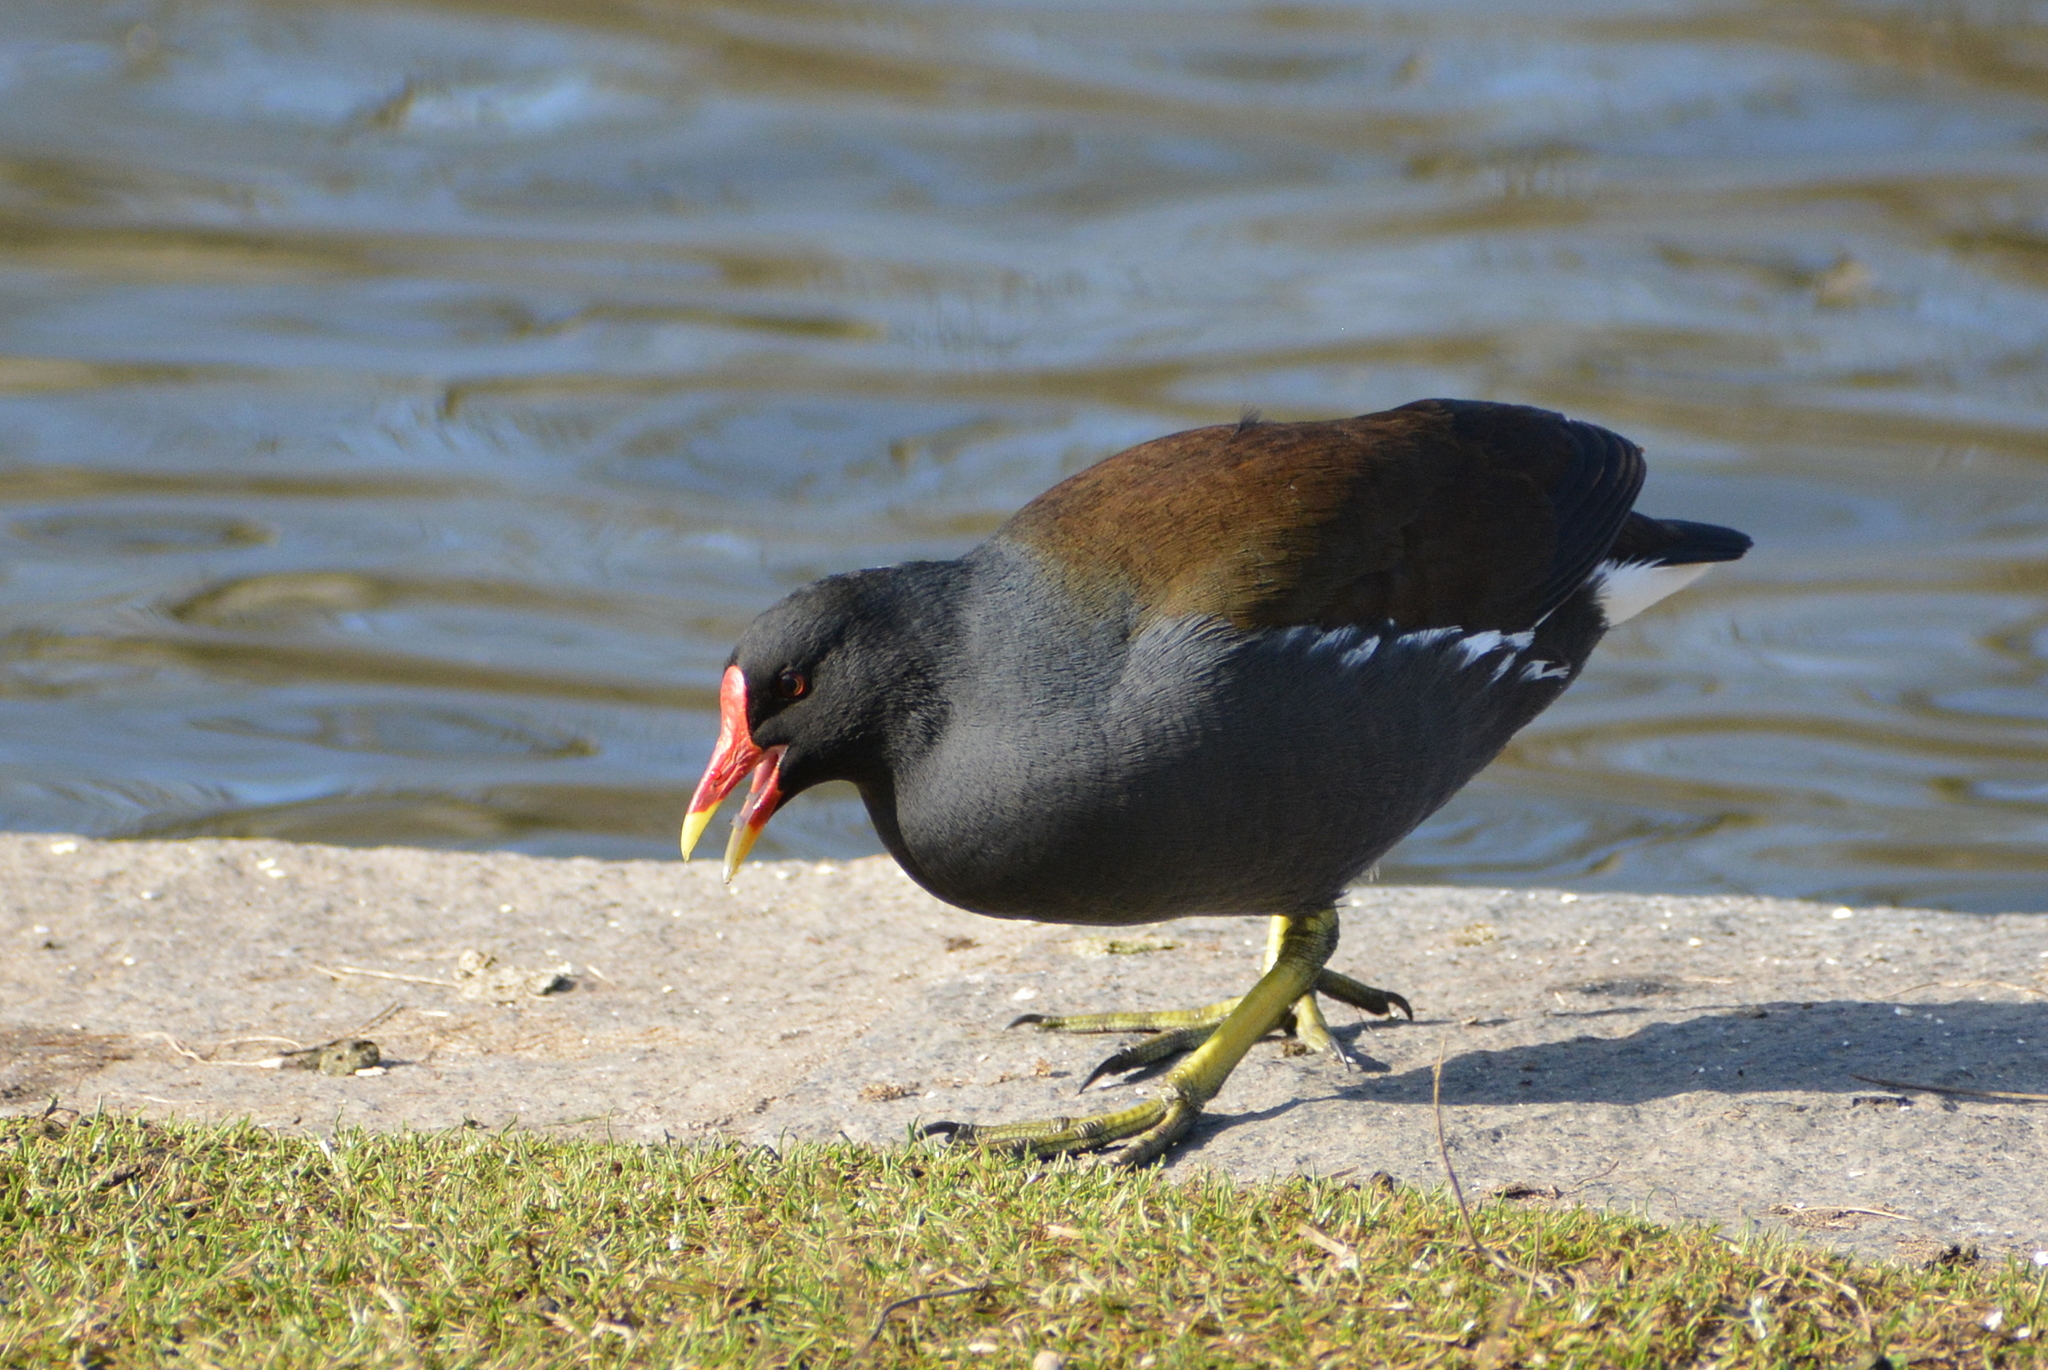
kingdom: Animalia
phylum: Chordata
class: Aves
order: Gruiformes
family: Rallidae
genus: Gallinula
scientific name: Gallinula chloropus
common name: Common moorhen
